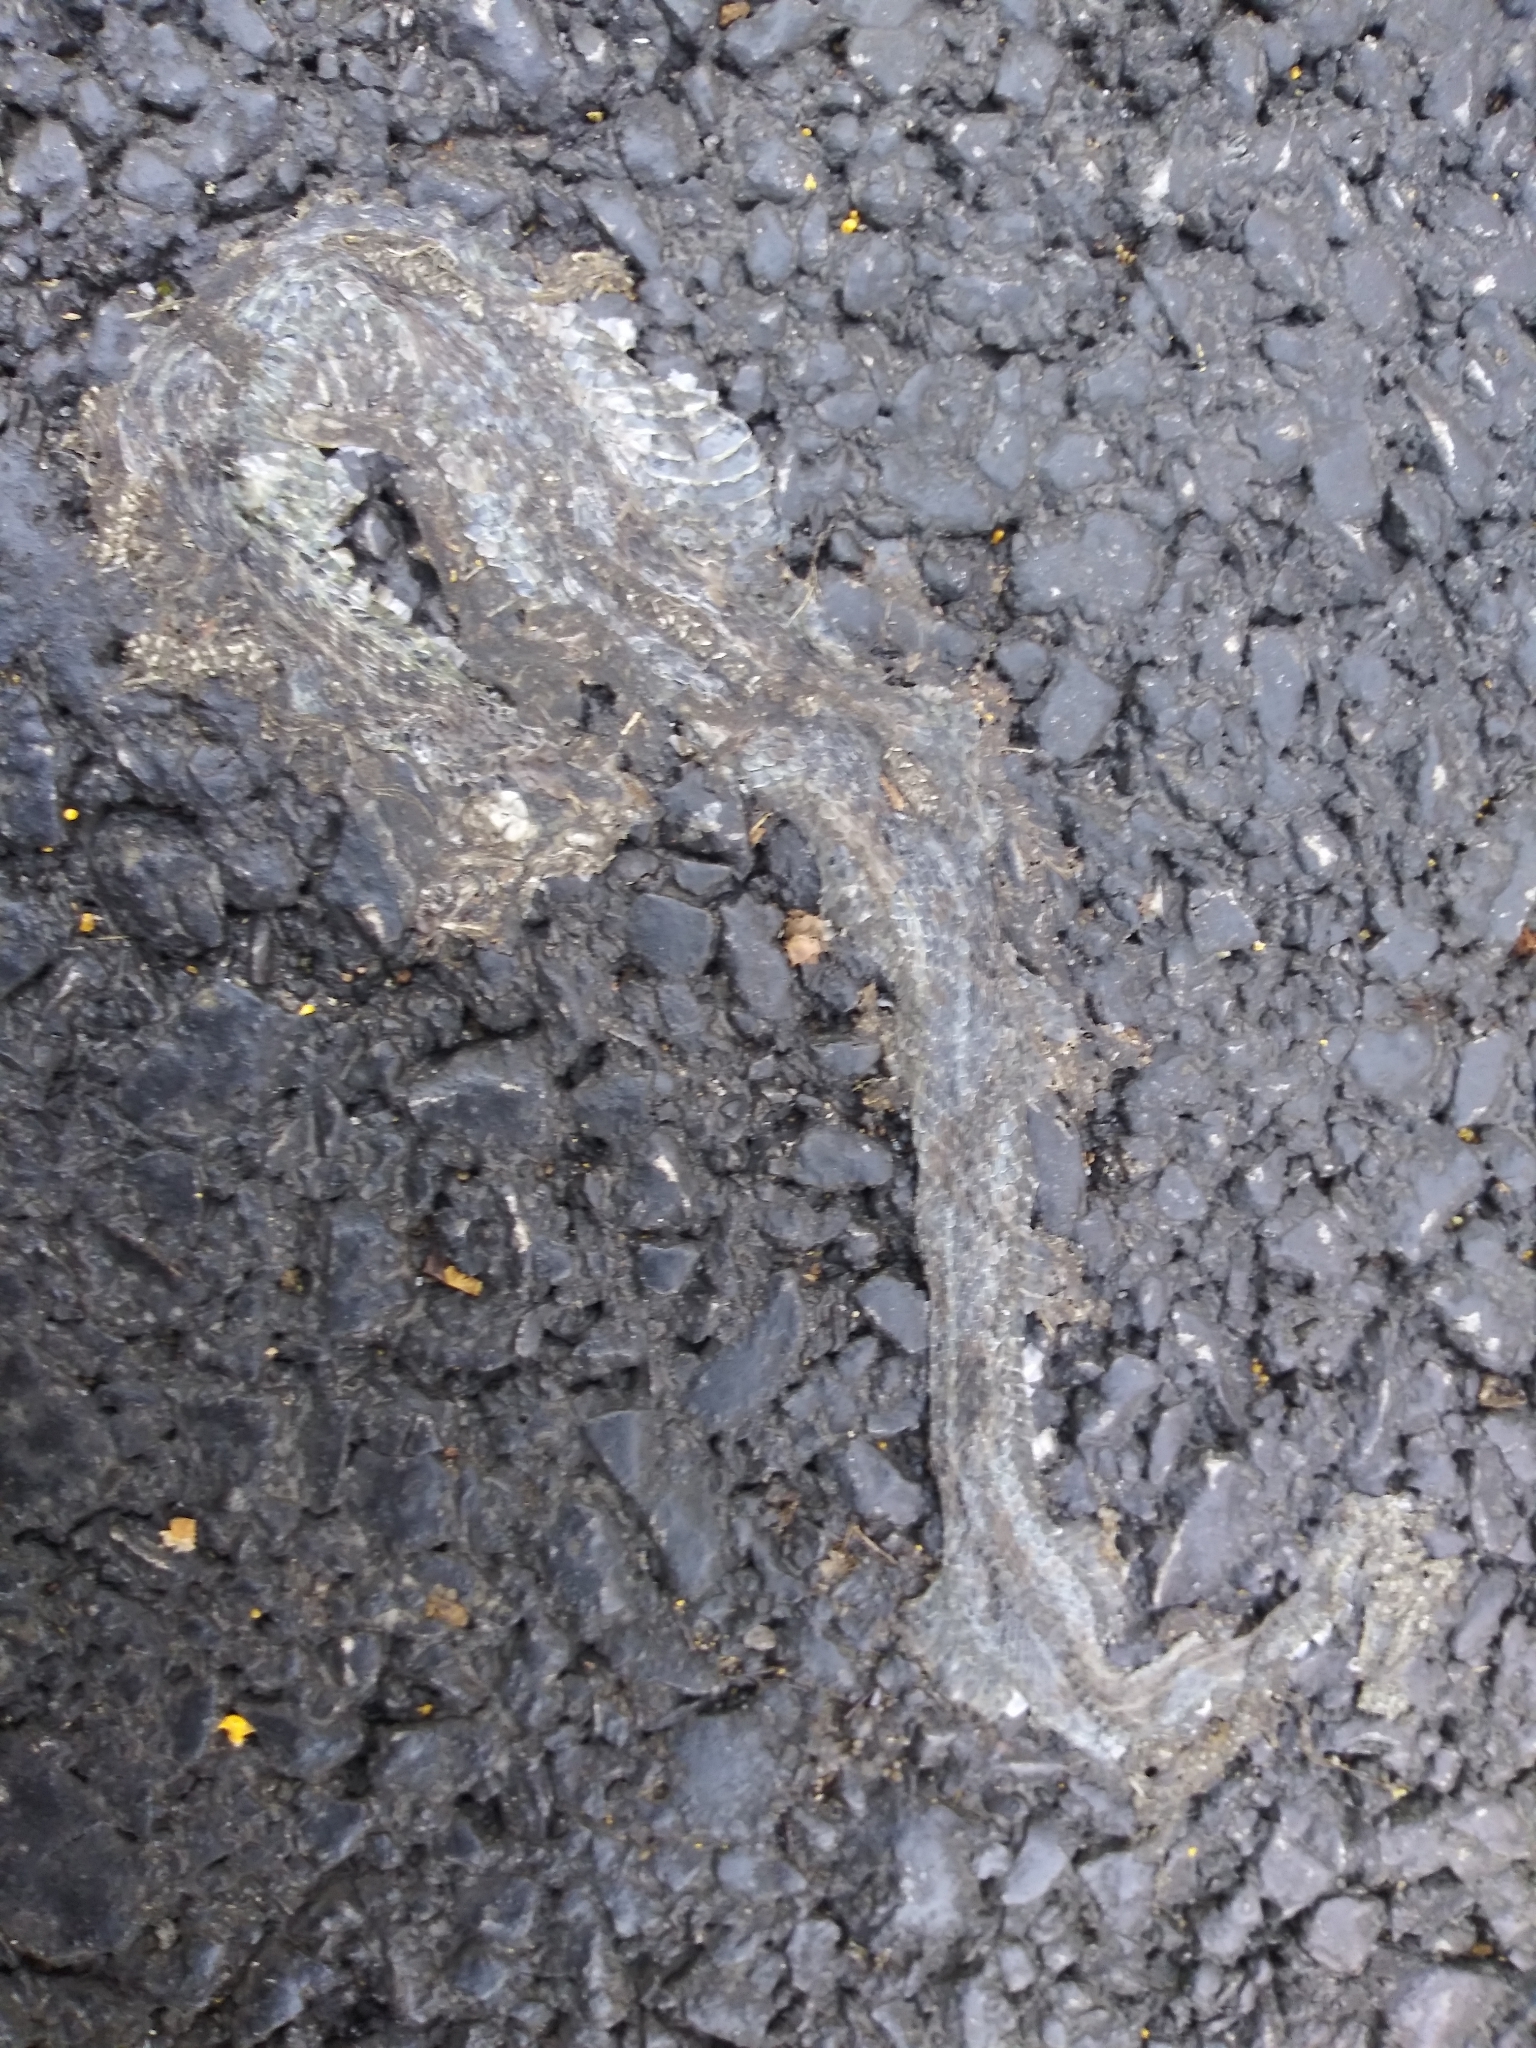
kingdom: Animalia
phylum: Chordata
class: Squamata
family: Colubridae
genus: Thamnophis
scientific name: Thamnophis sirtalis
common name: Common garter snake
